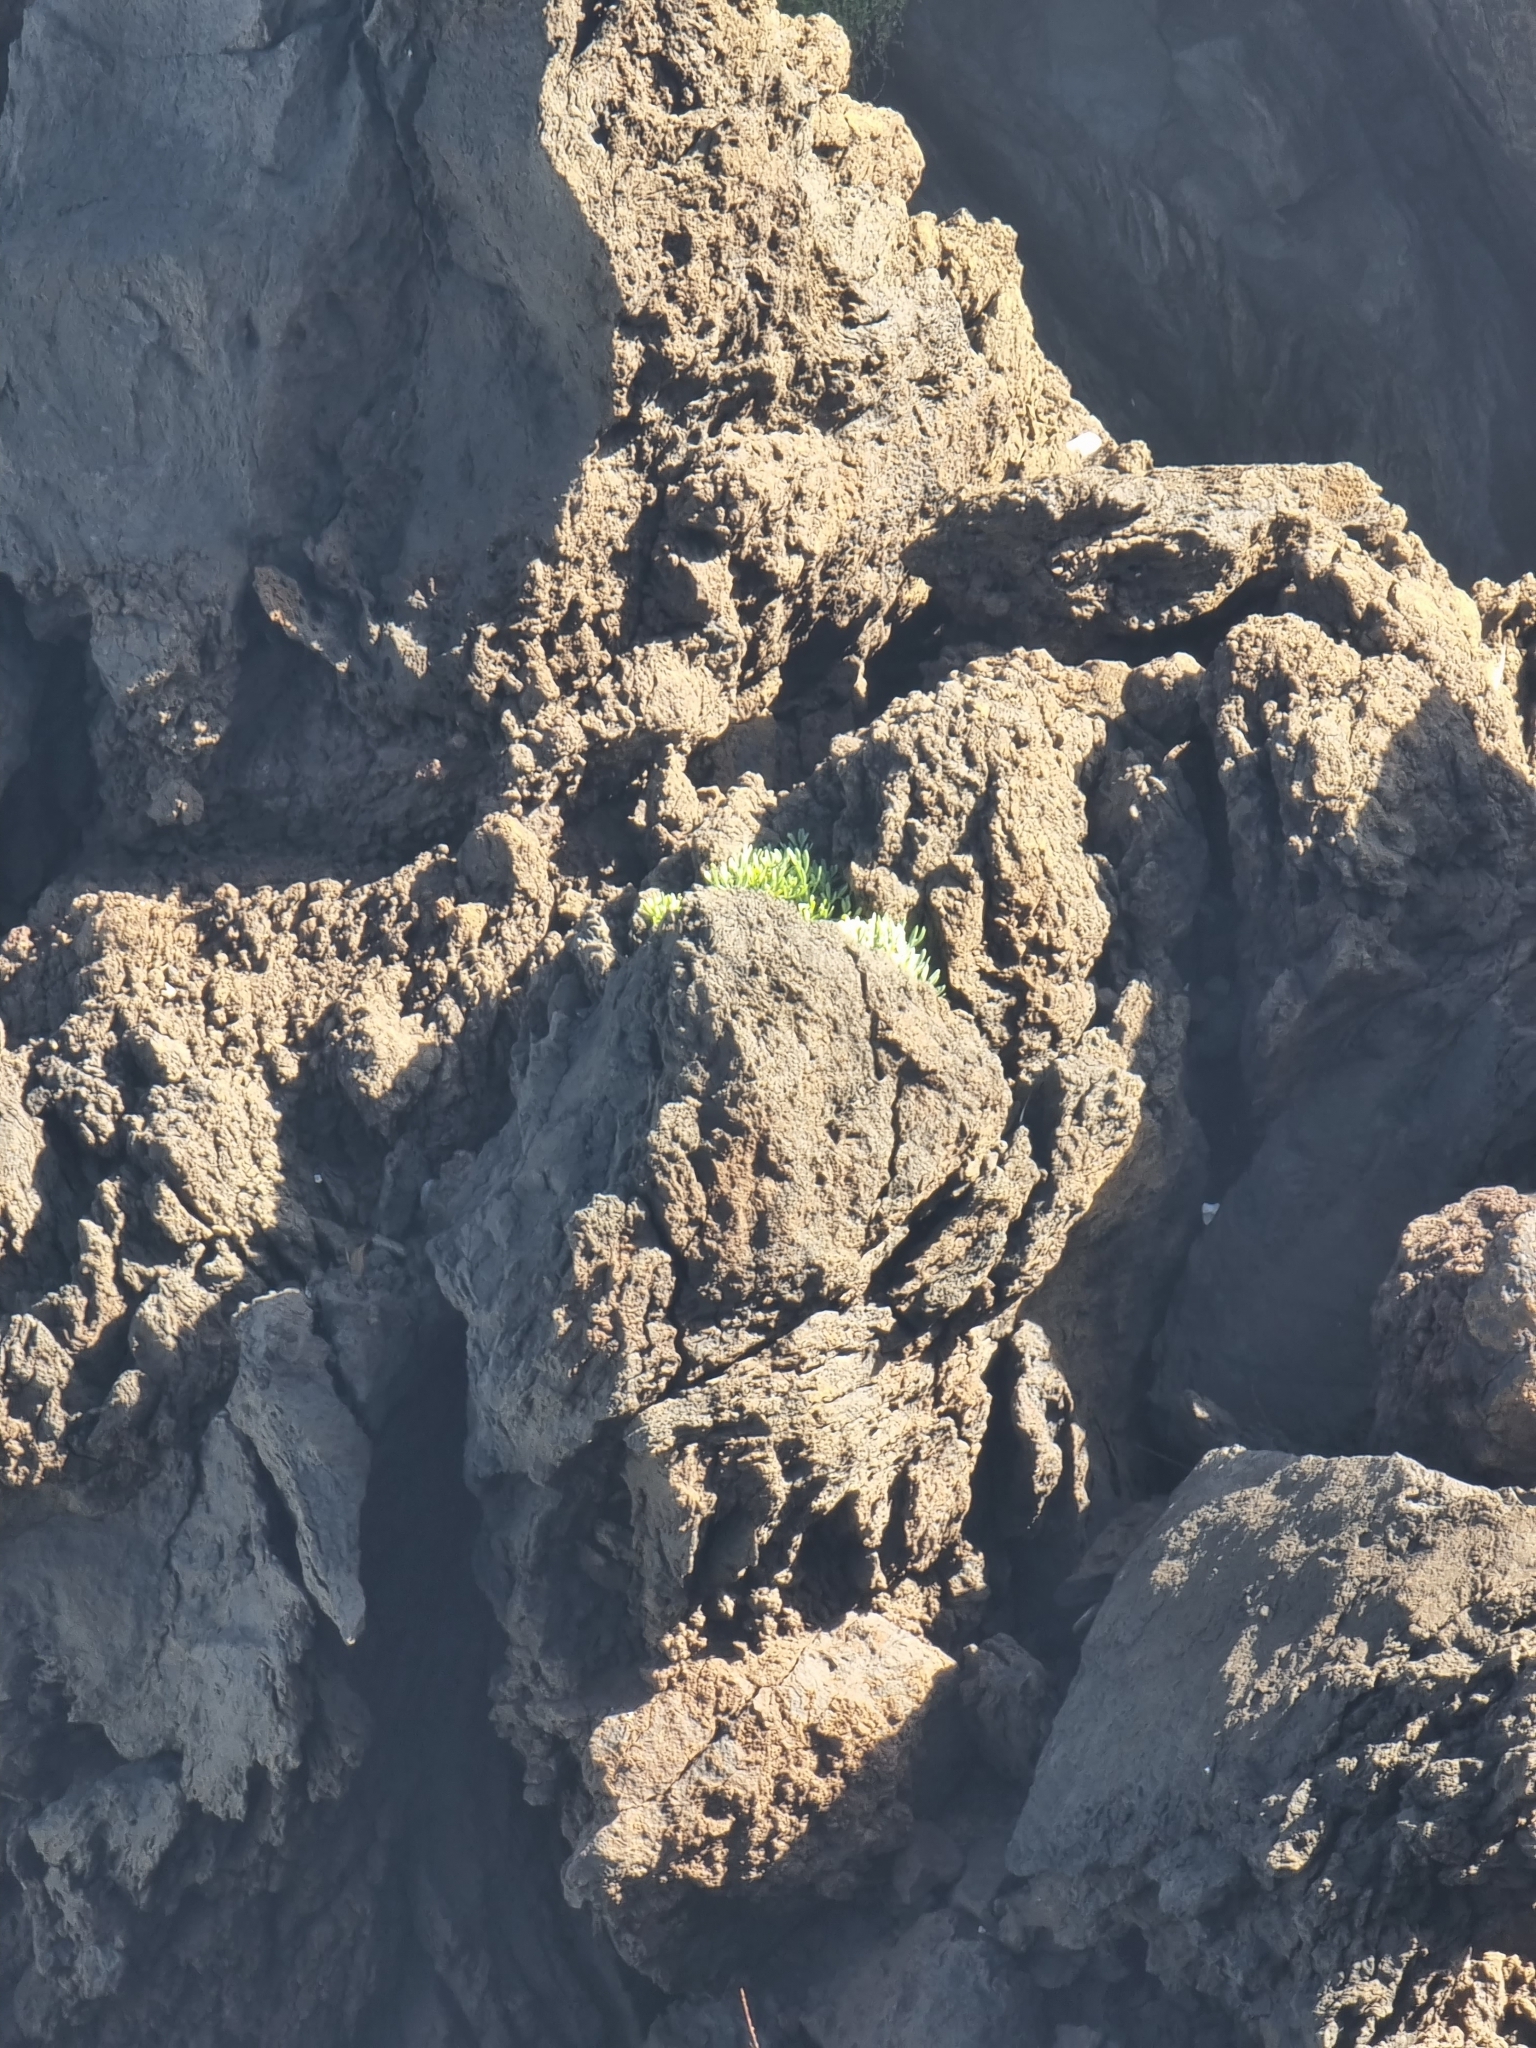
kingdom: Plantae
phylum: Tracheophyta
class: Magnoliopsida
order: Apiales
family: Apiaceae
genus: Crithmum
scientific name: Crithmum maritimum
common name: Rock samphire
